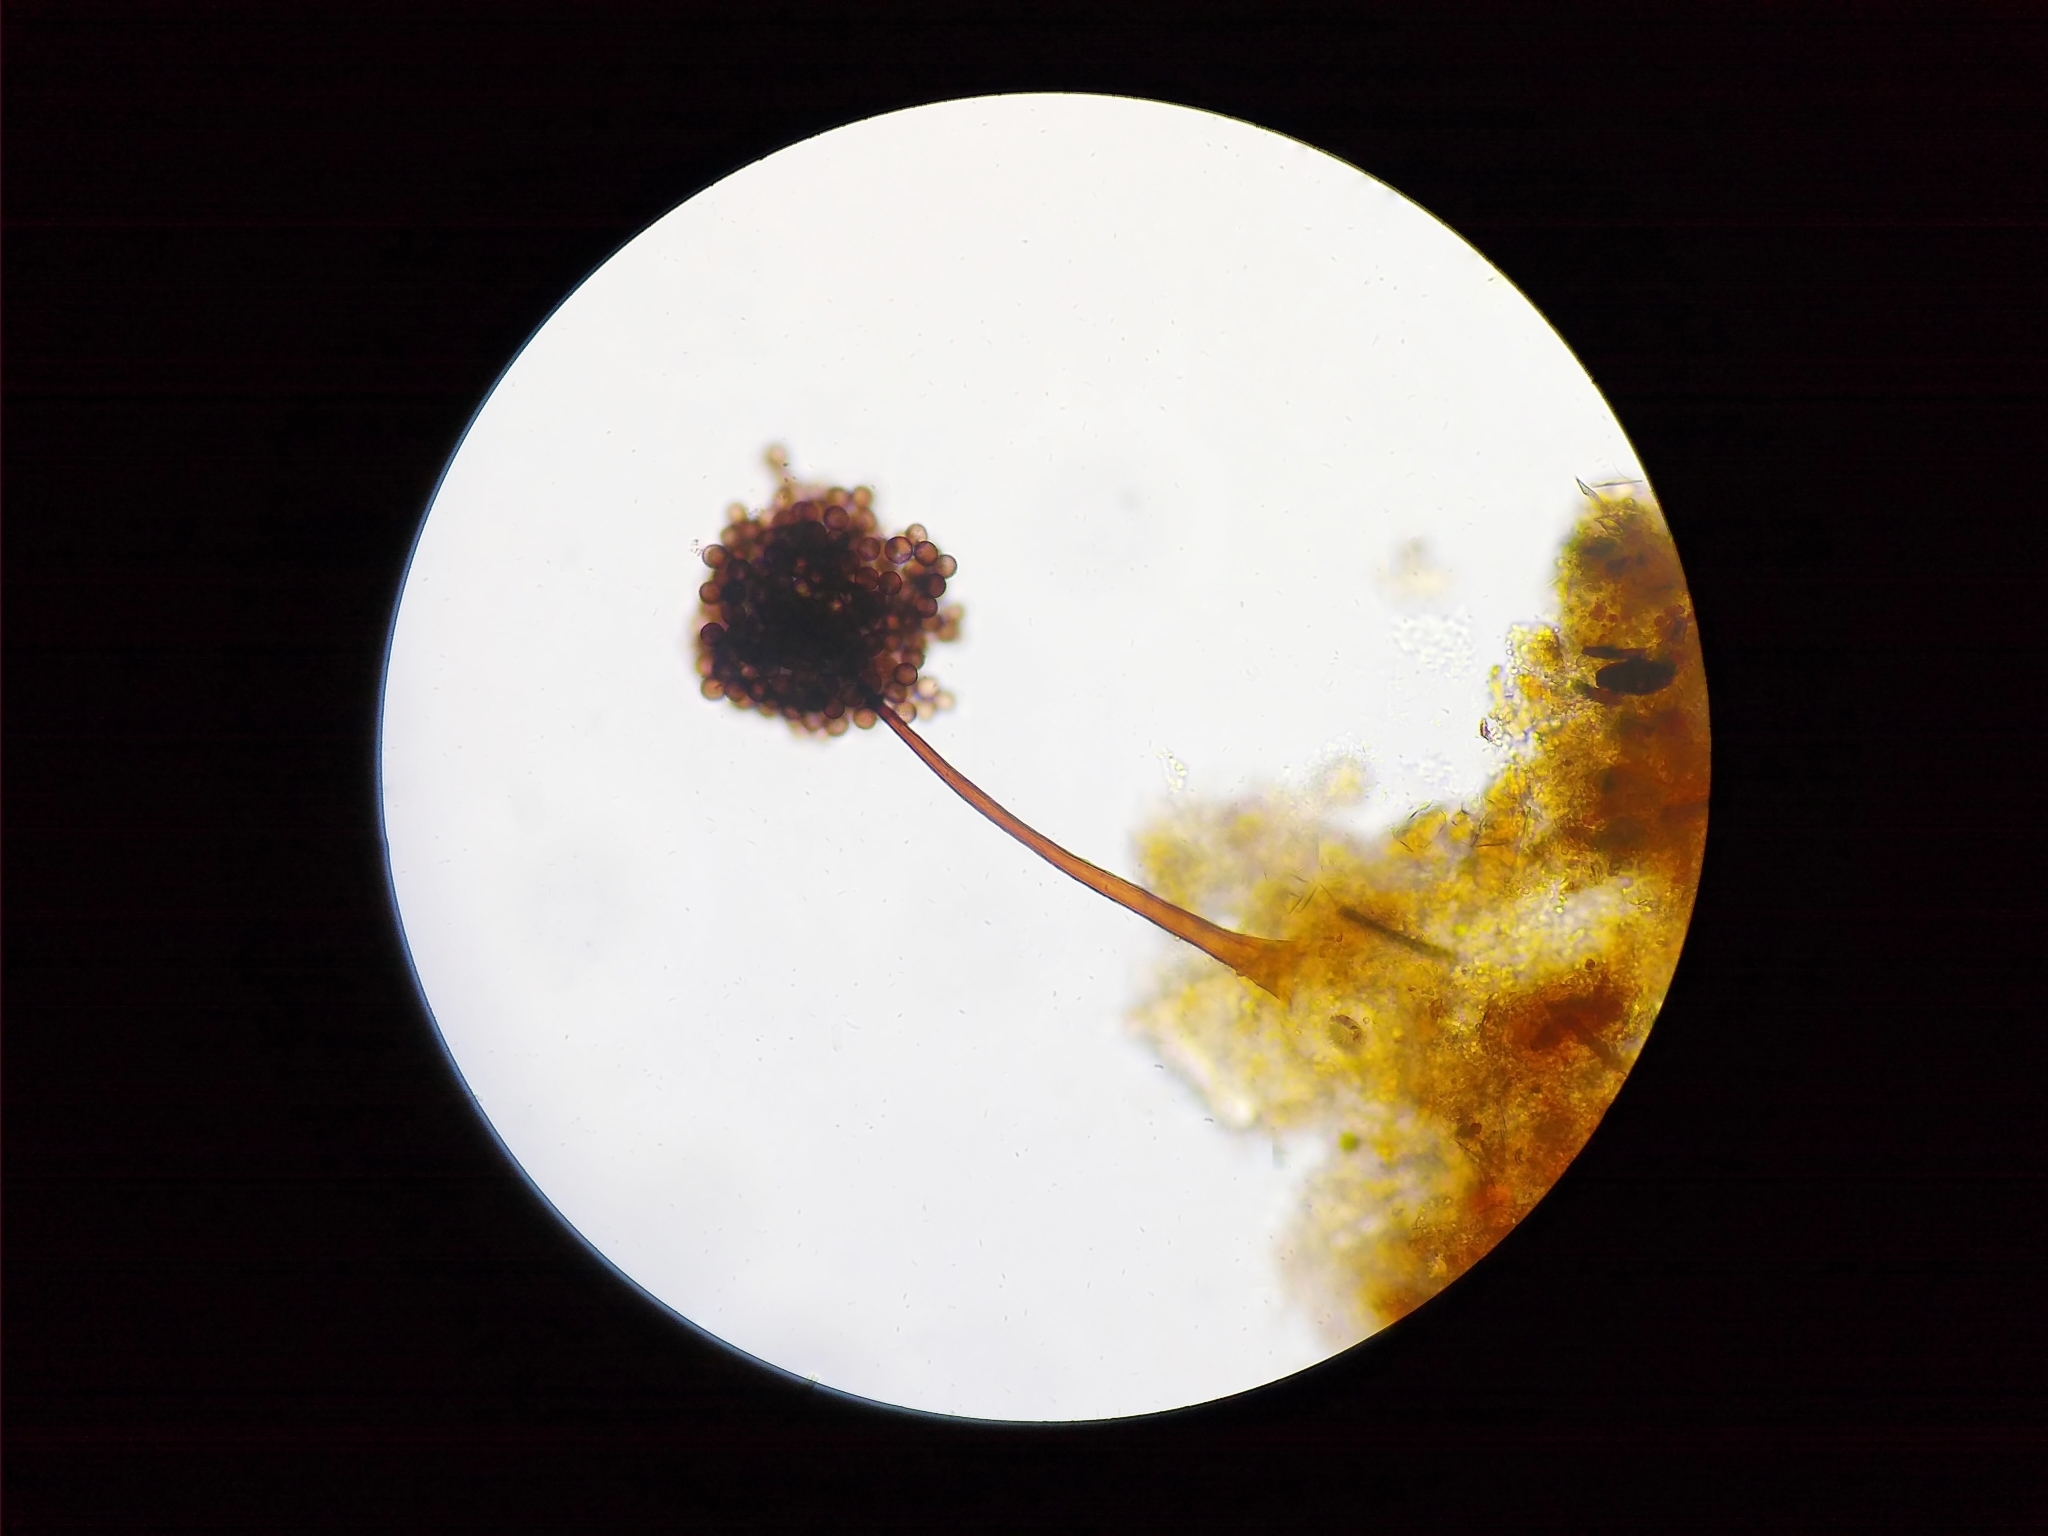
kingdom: Protozoa
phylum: Mycetozoa
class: Myxomycetes
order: Stemonitidales
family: Stemonitidaceae
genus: Macbrideola
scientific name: Macbrideola cornea
